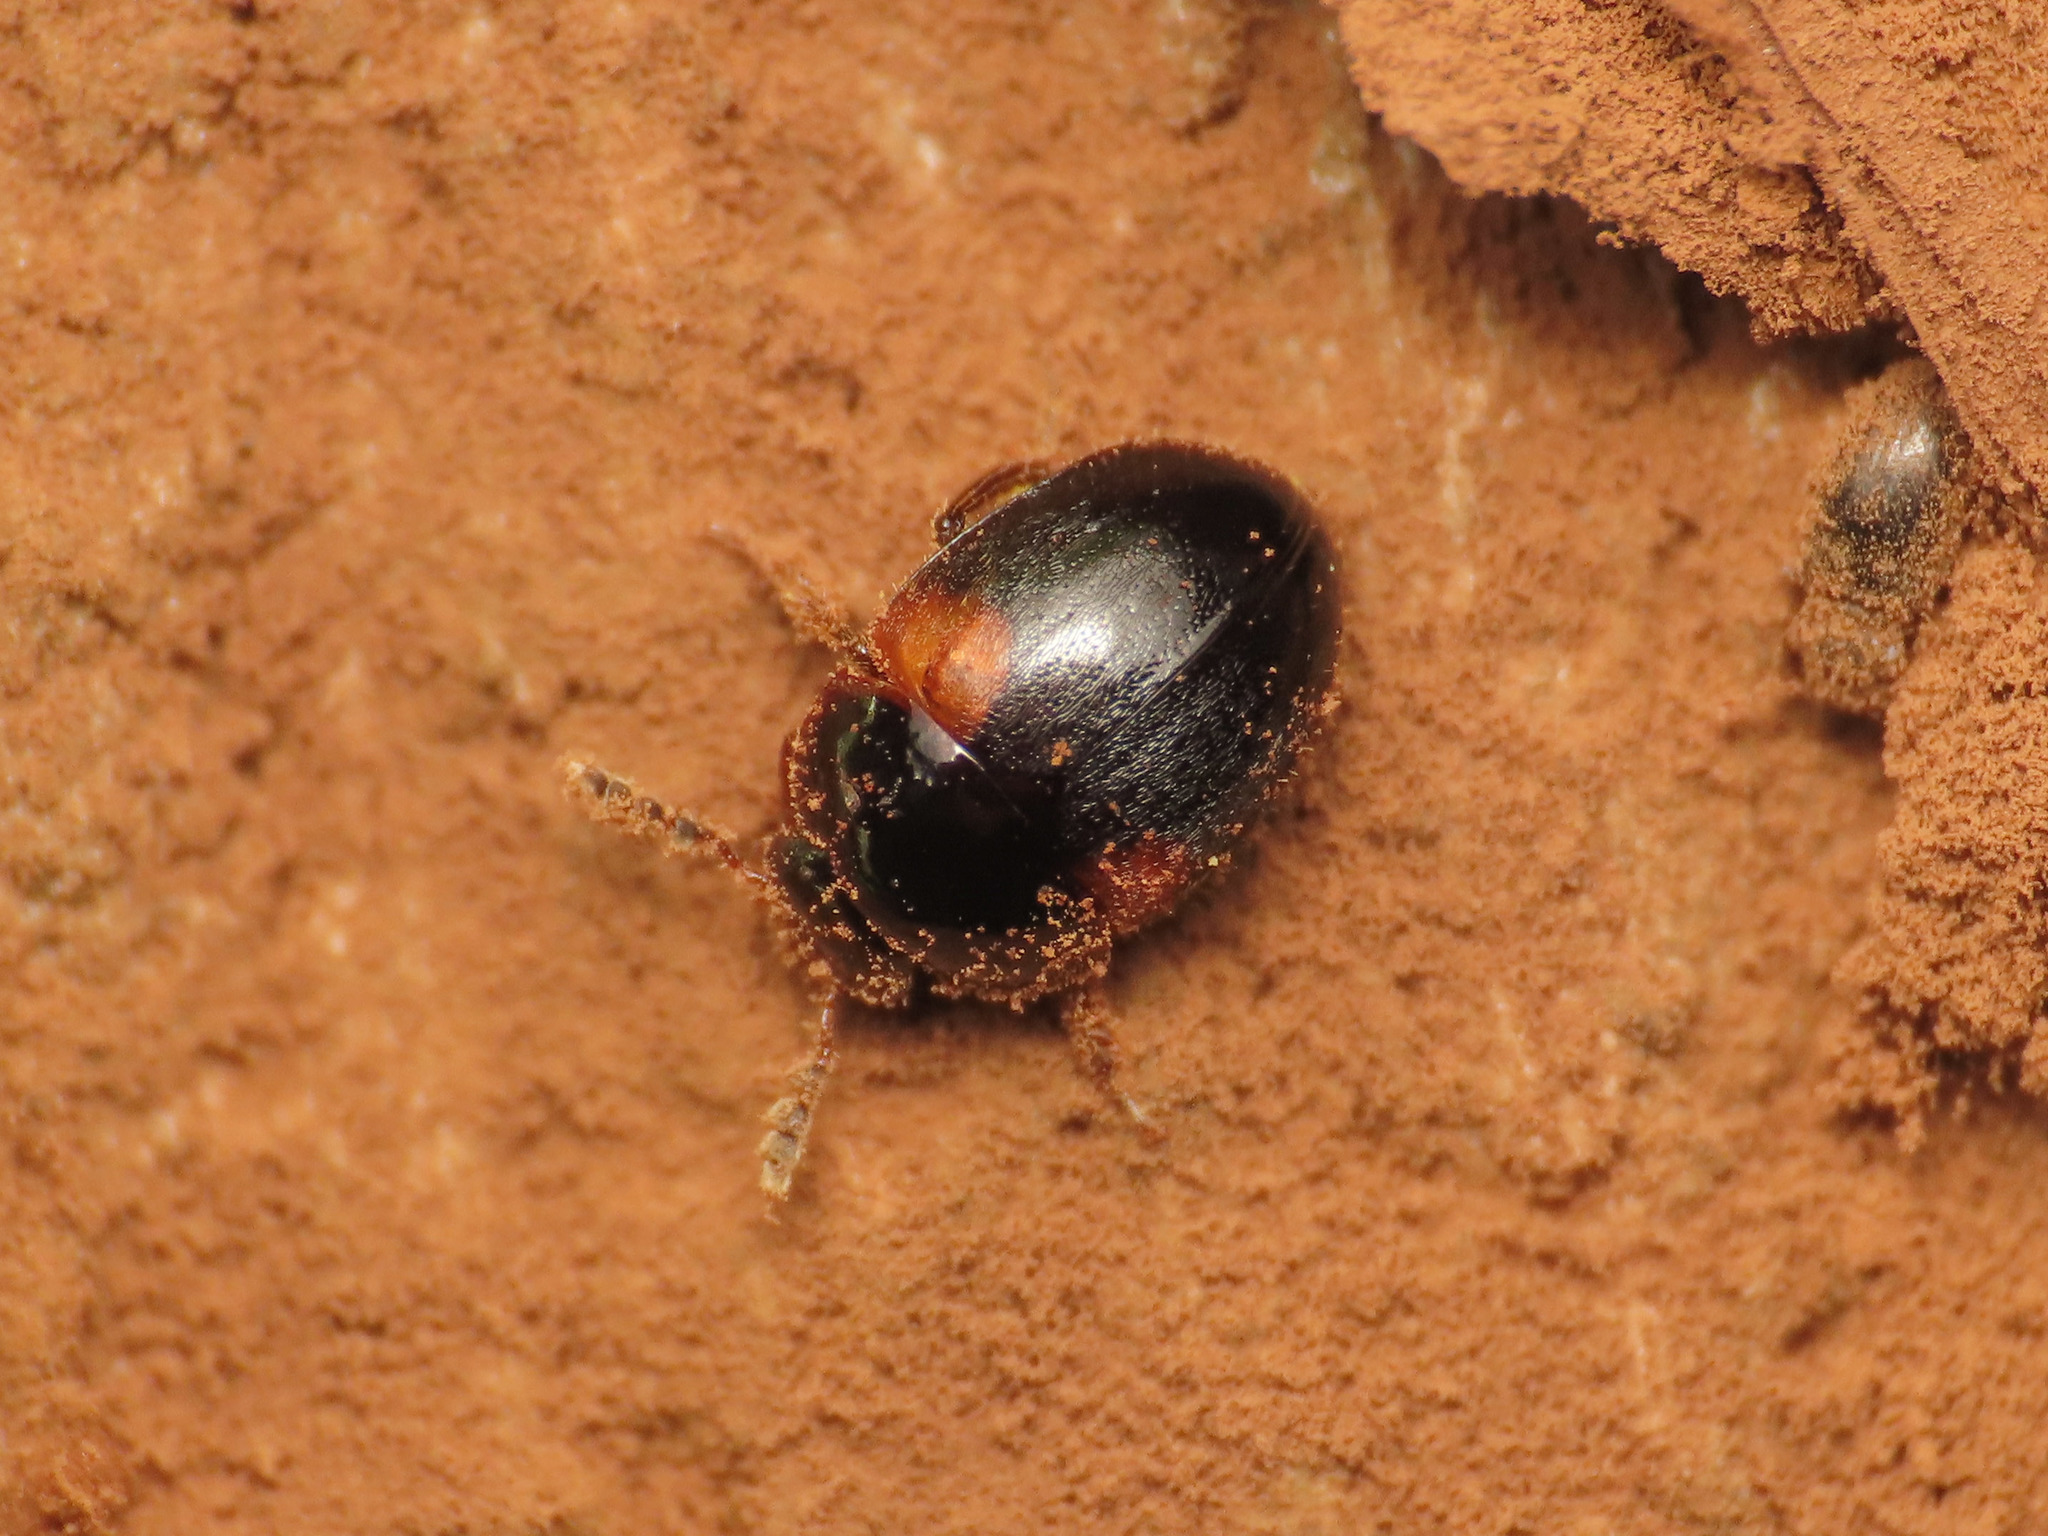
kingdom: Animalia
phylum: Arthropoda
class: Insecta
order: Coleoptera
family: Leiodidae
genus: Anisotoma
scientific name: Anisotoma humeralis
